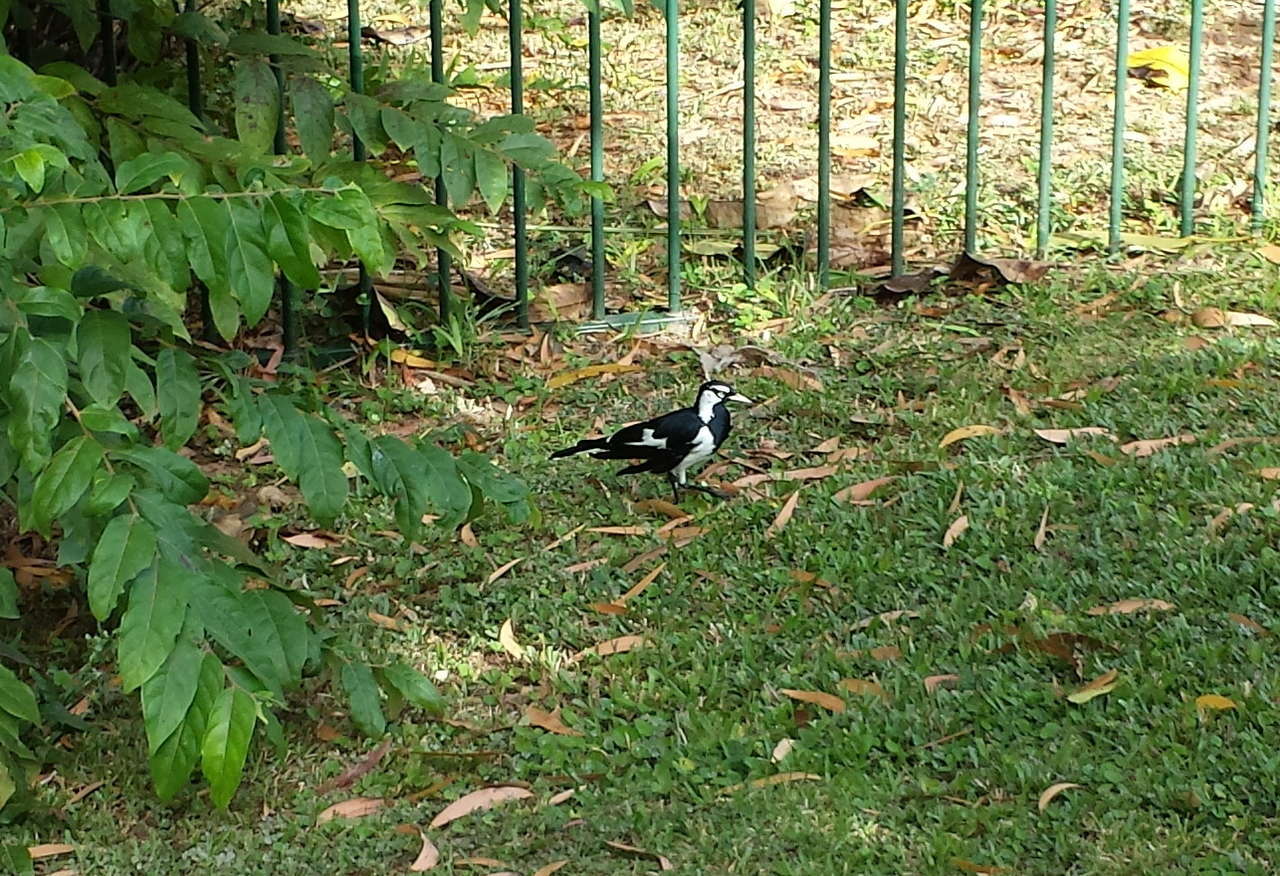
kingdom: Animalia
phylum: Chordata
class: Aves
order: Passeriformes
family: Monarchidae
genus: Grallina
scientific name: Grallina cyanoleuca
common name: Magpie-lark
